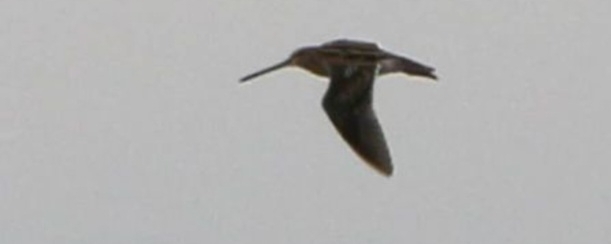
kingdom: Animalia
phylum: Chordata
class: Aves
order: Charadriiformes
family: Scolopacidae
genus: Gallinago
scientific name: Gallinago gallinago
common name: Common snipe
